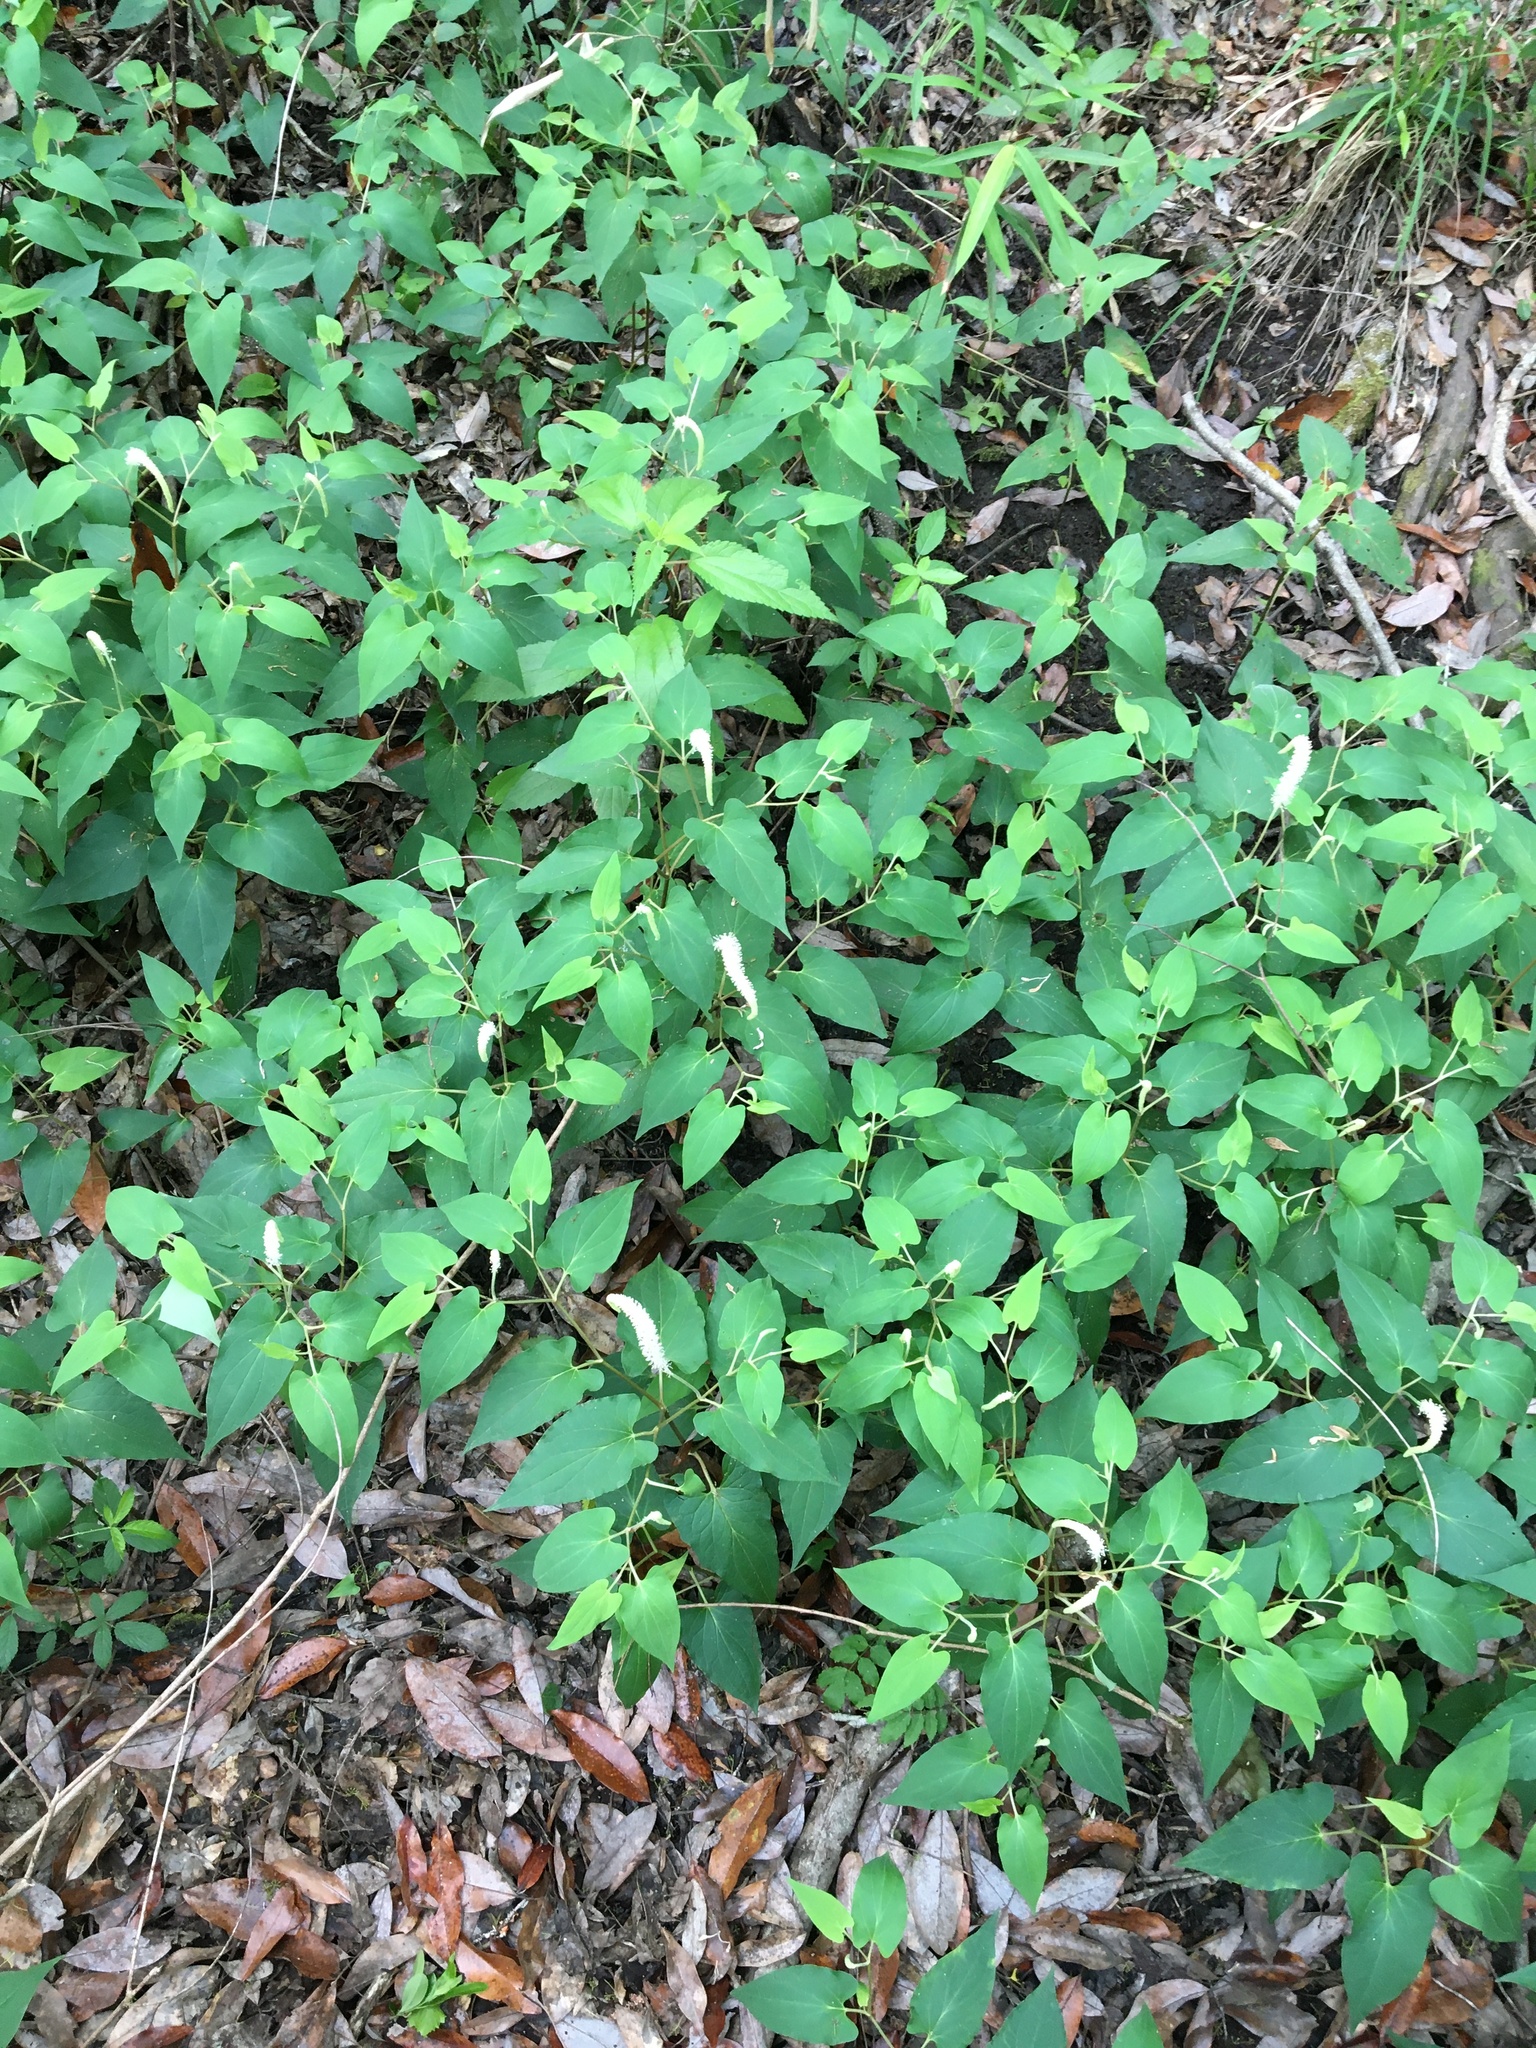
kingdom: Plantae
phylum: Tracheophyta
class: Magnoliopsida
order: Piperales
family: Saururaceae
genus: Saururus
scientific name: Saururus cernuus
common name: Lizard's-tail
